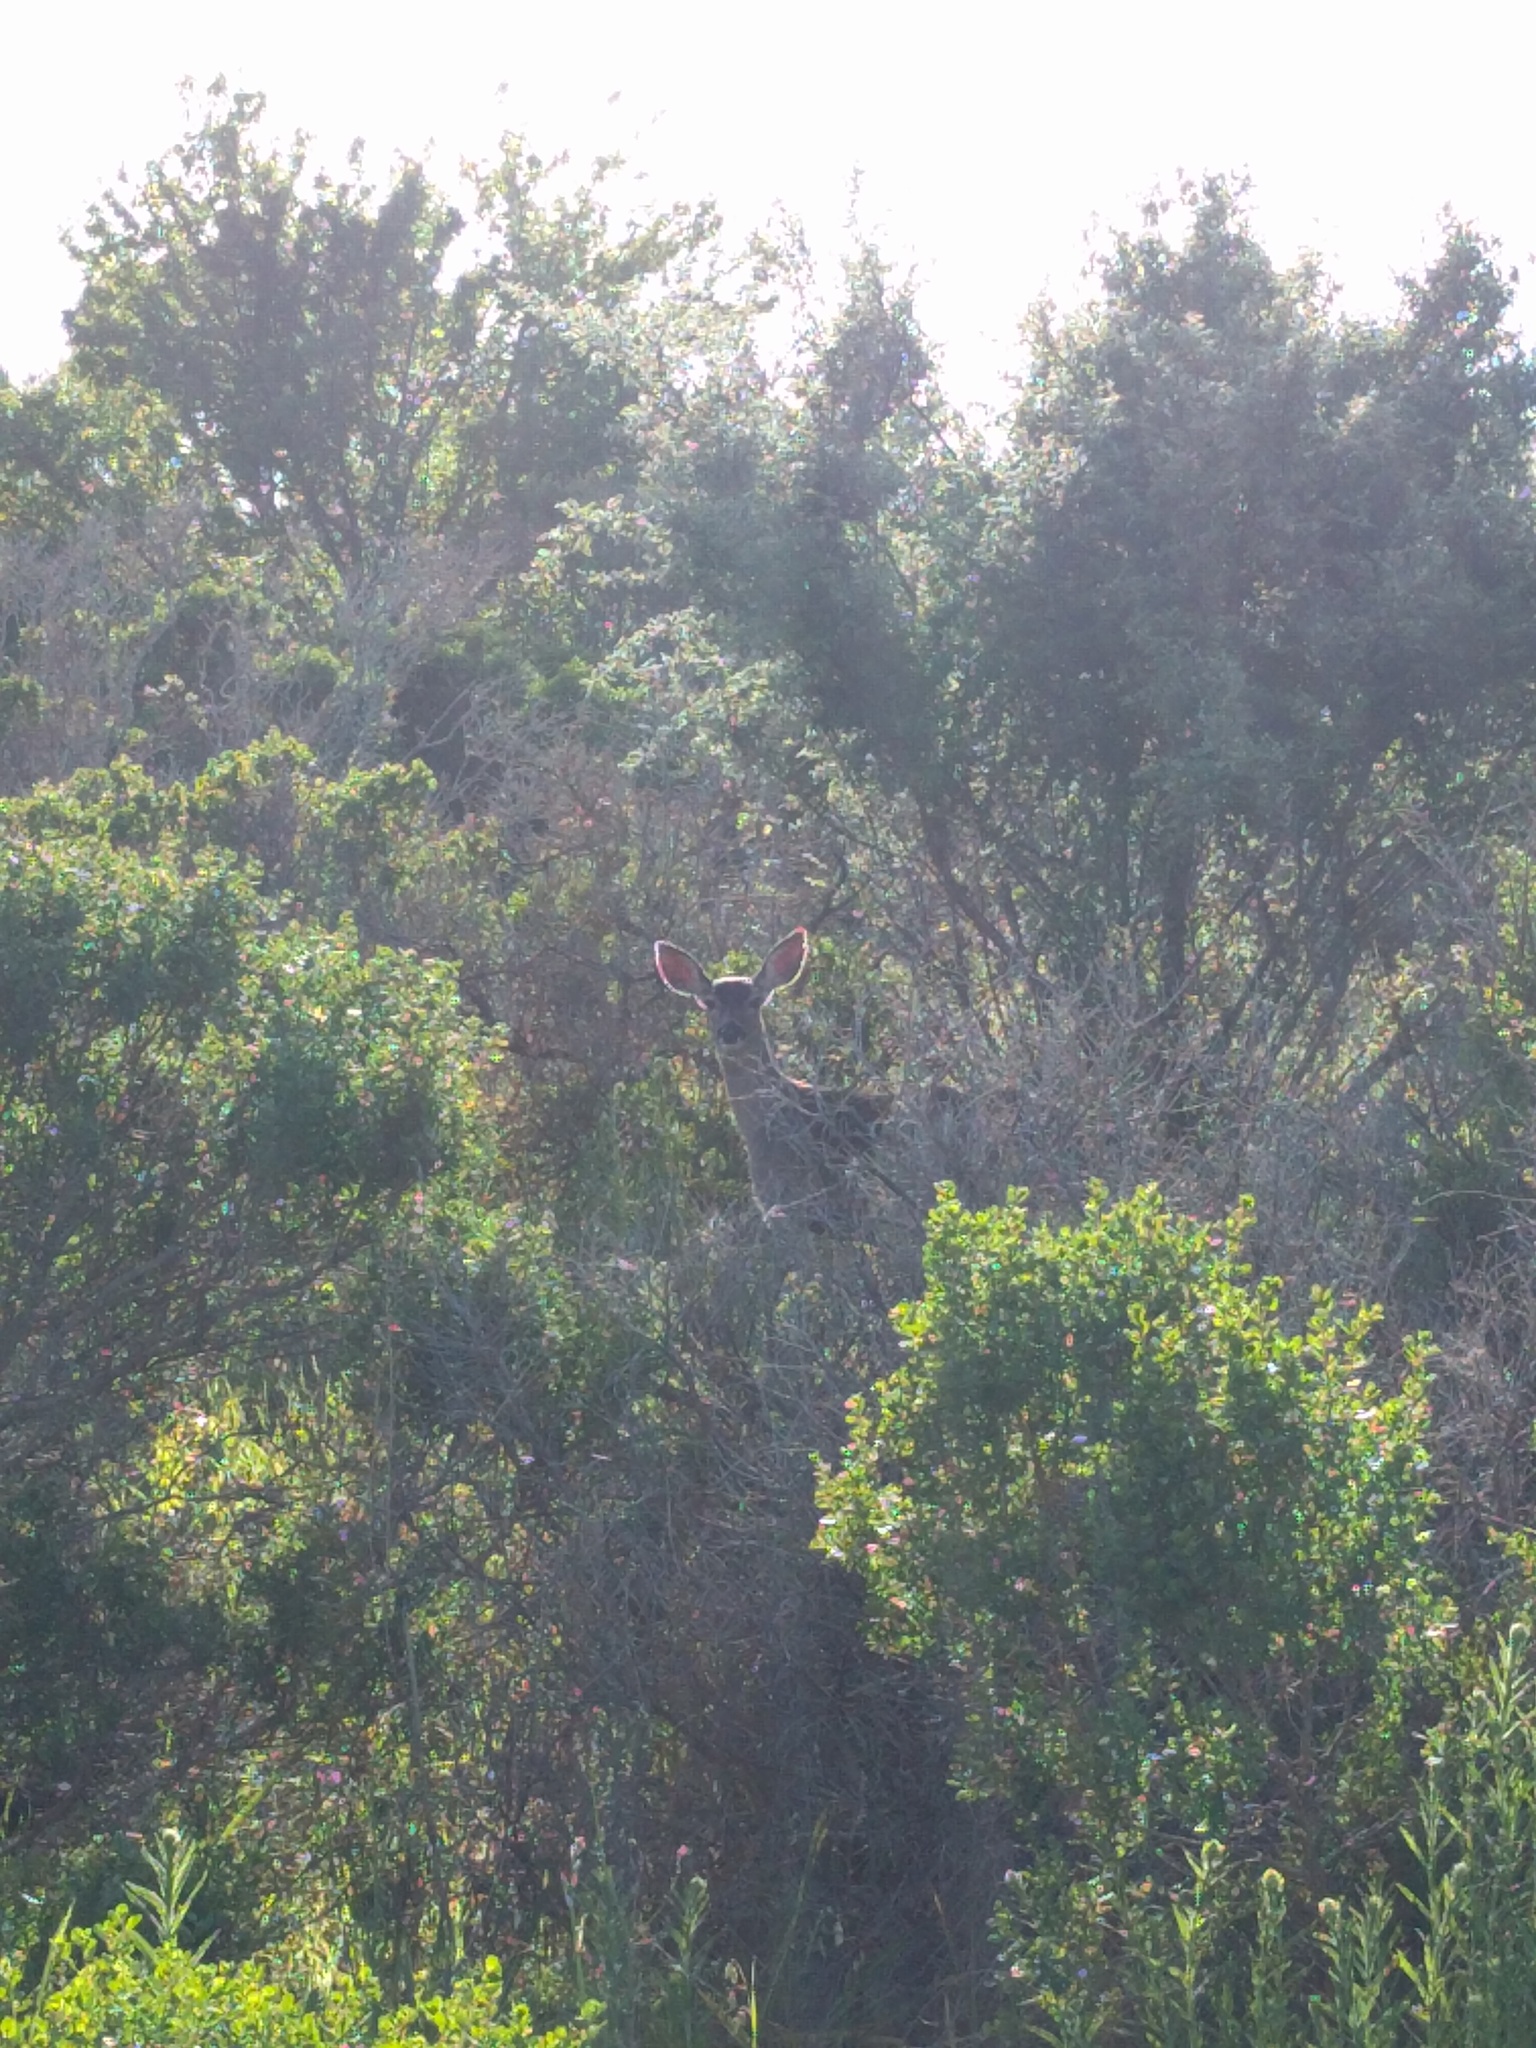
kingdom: Animalia
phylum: Chordata
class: Mammalia
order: Artiodactyla
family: Cervidae
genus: Odocoileus
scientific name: Odocoileus hemionus
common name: Mule deer
